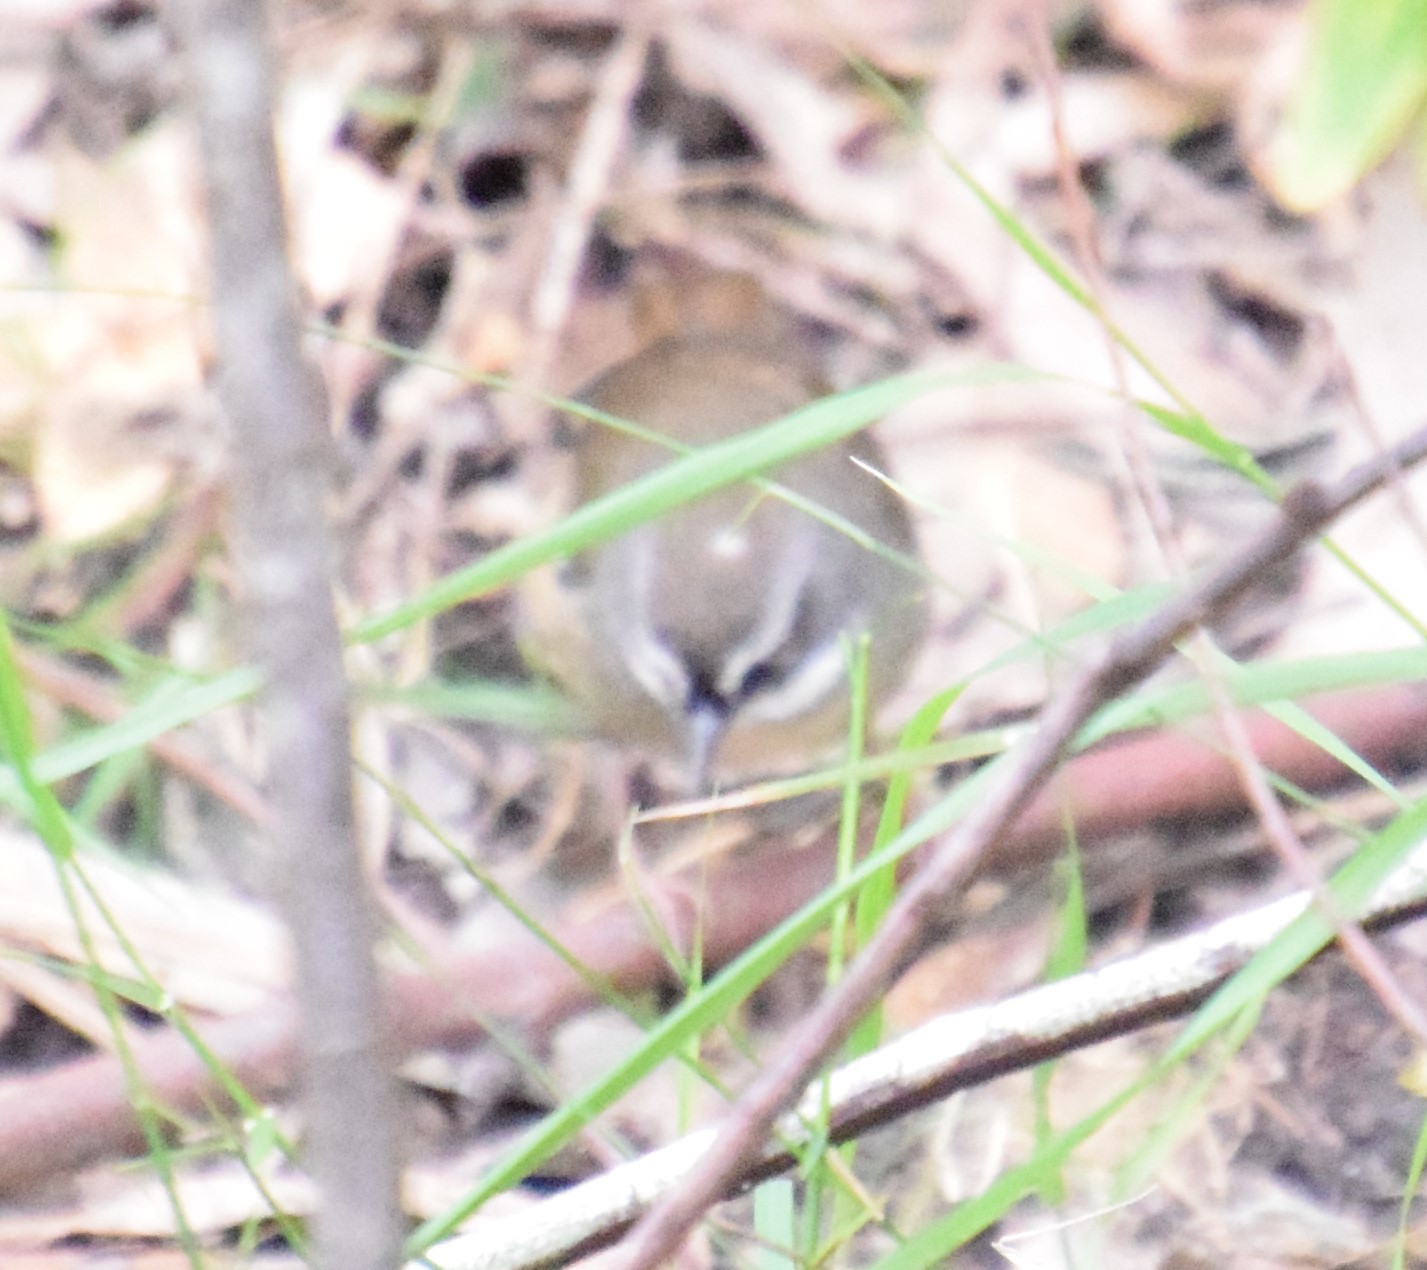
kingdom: Animalia
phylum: Chordata
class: Aves
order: Passeriformes
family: Acanthizidae
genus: Sericornis
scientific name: Sericornis frontalis
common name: White-browed scrubwren
